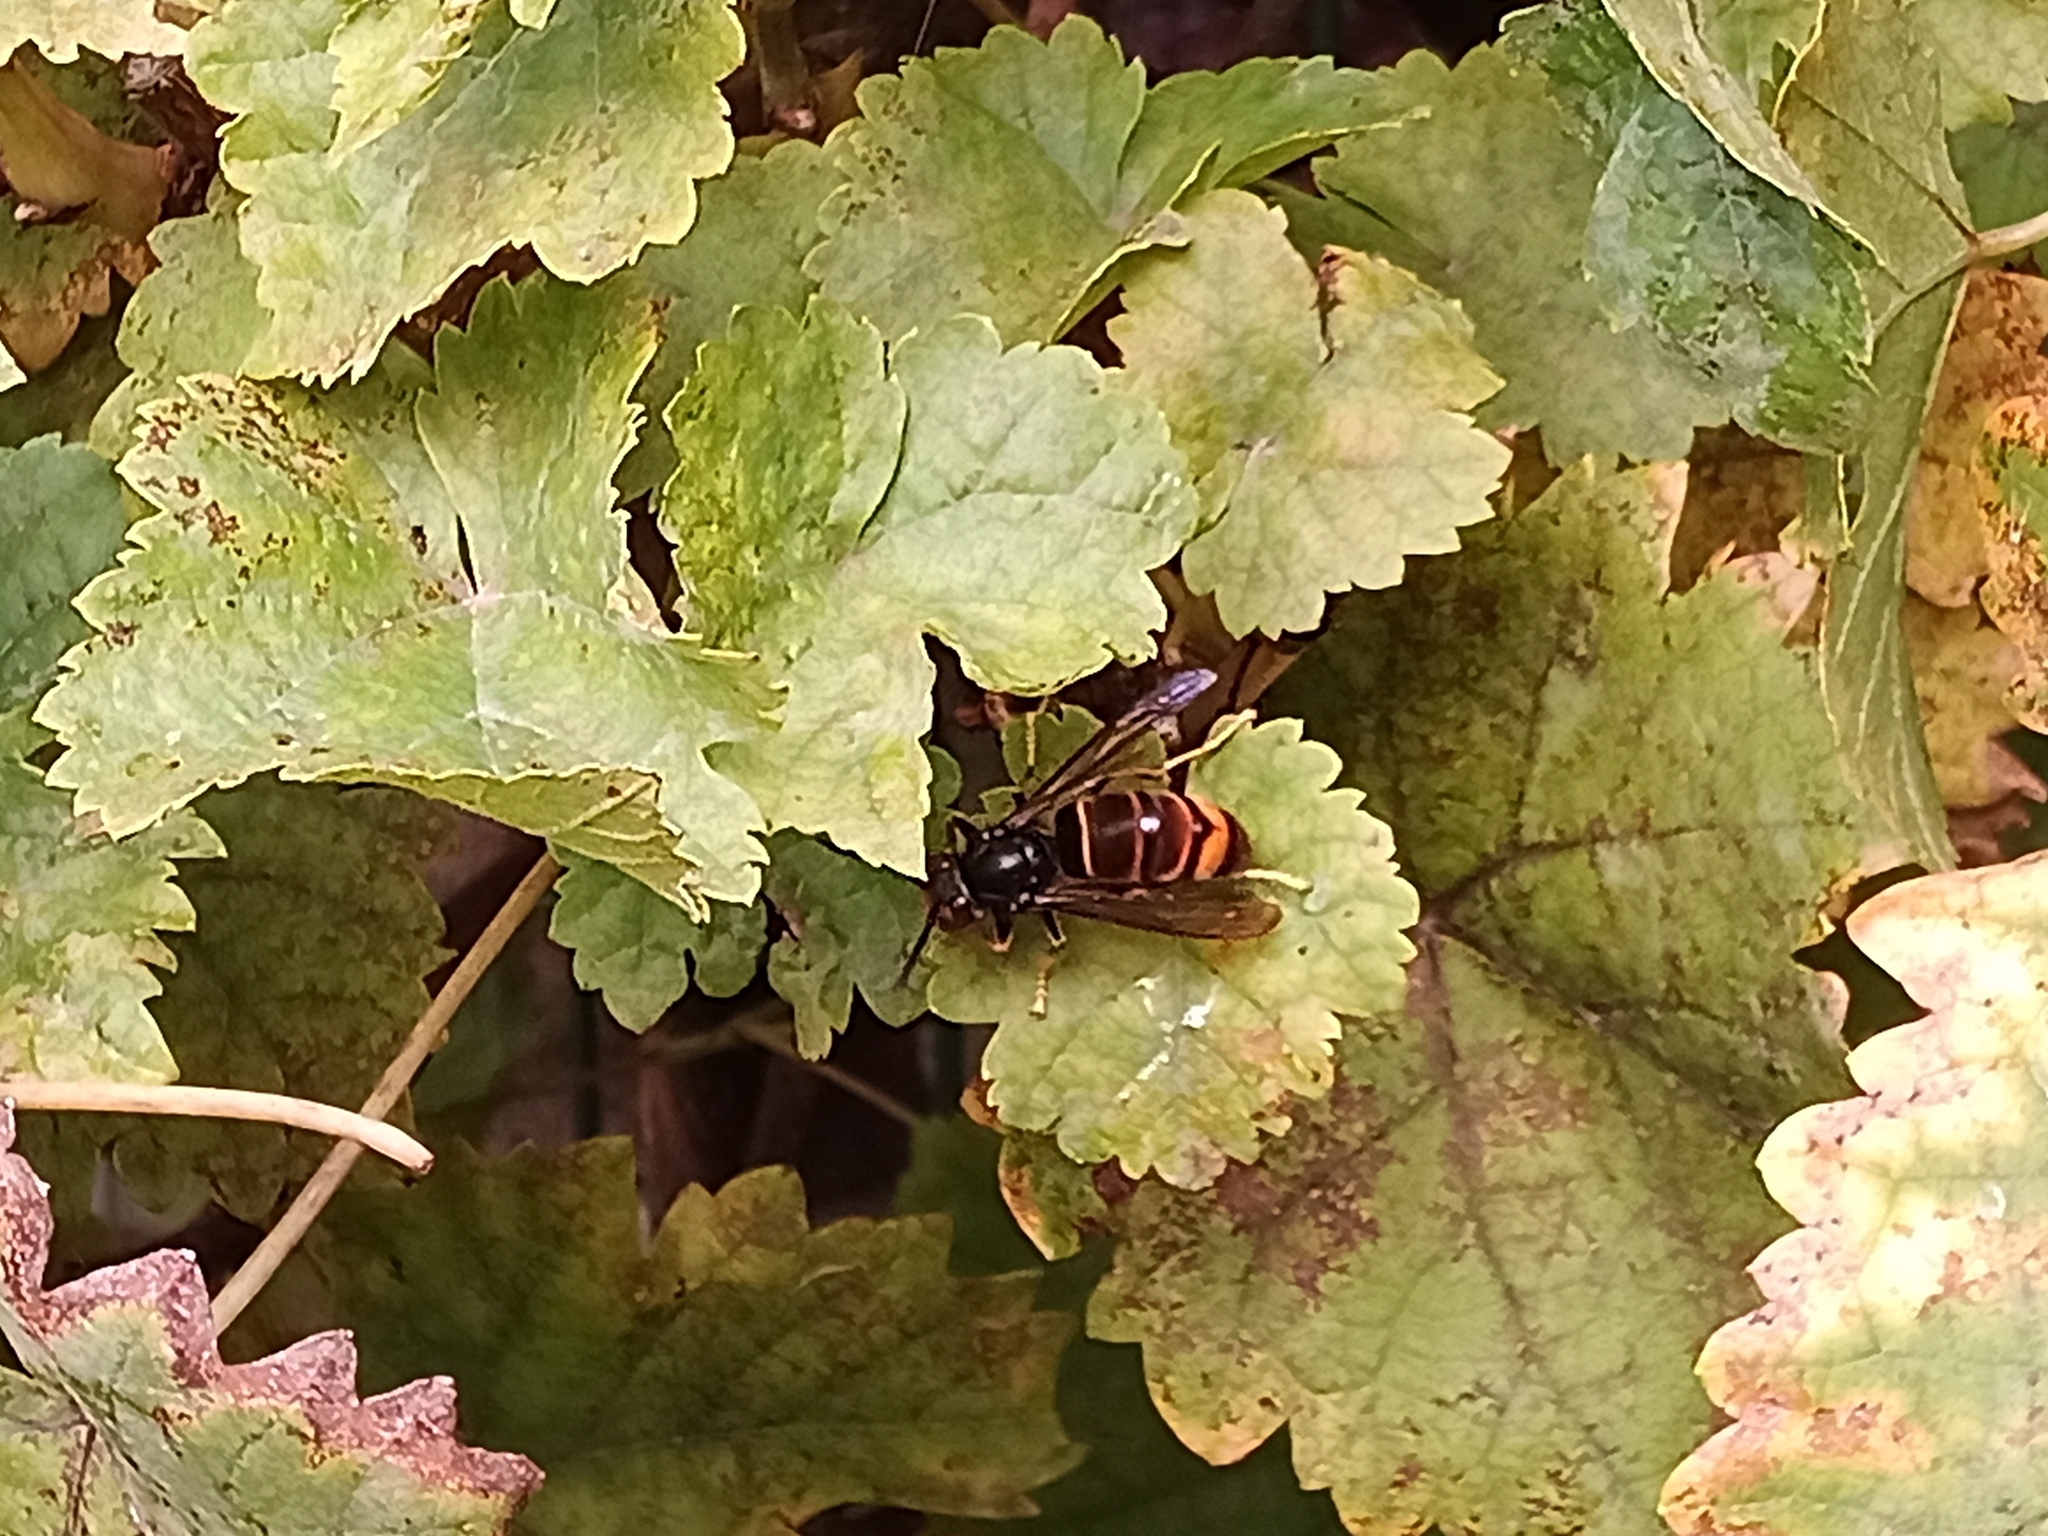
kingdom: Animalia
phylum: Arthropoda
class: Insecta
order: Hymenoptera
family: Vespidae
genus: Vespa
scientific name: Vespa velutina
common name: Asian hornet
